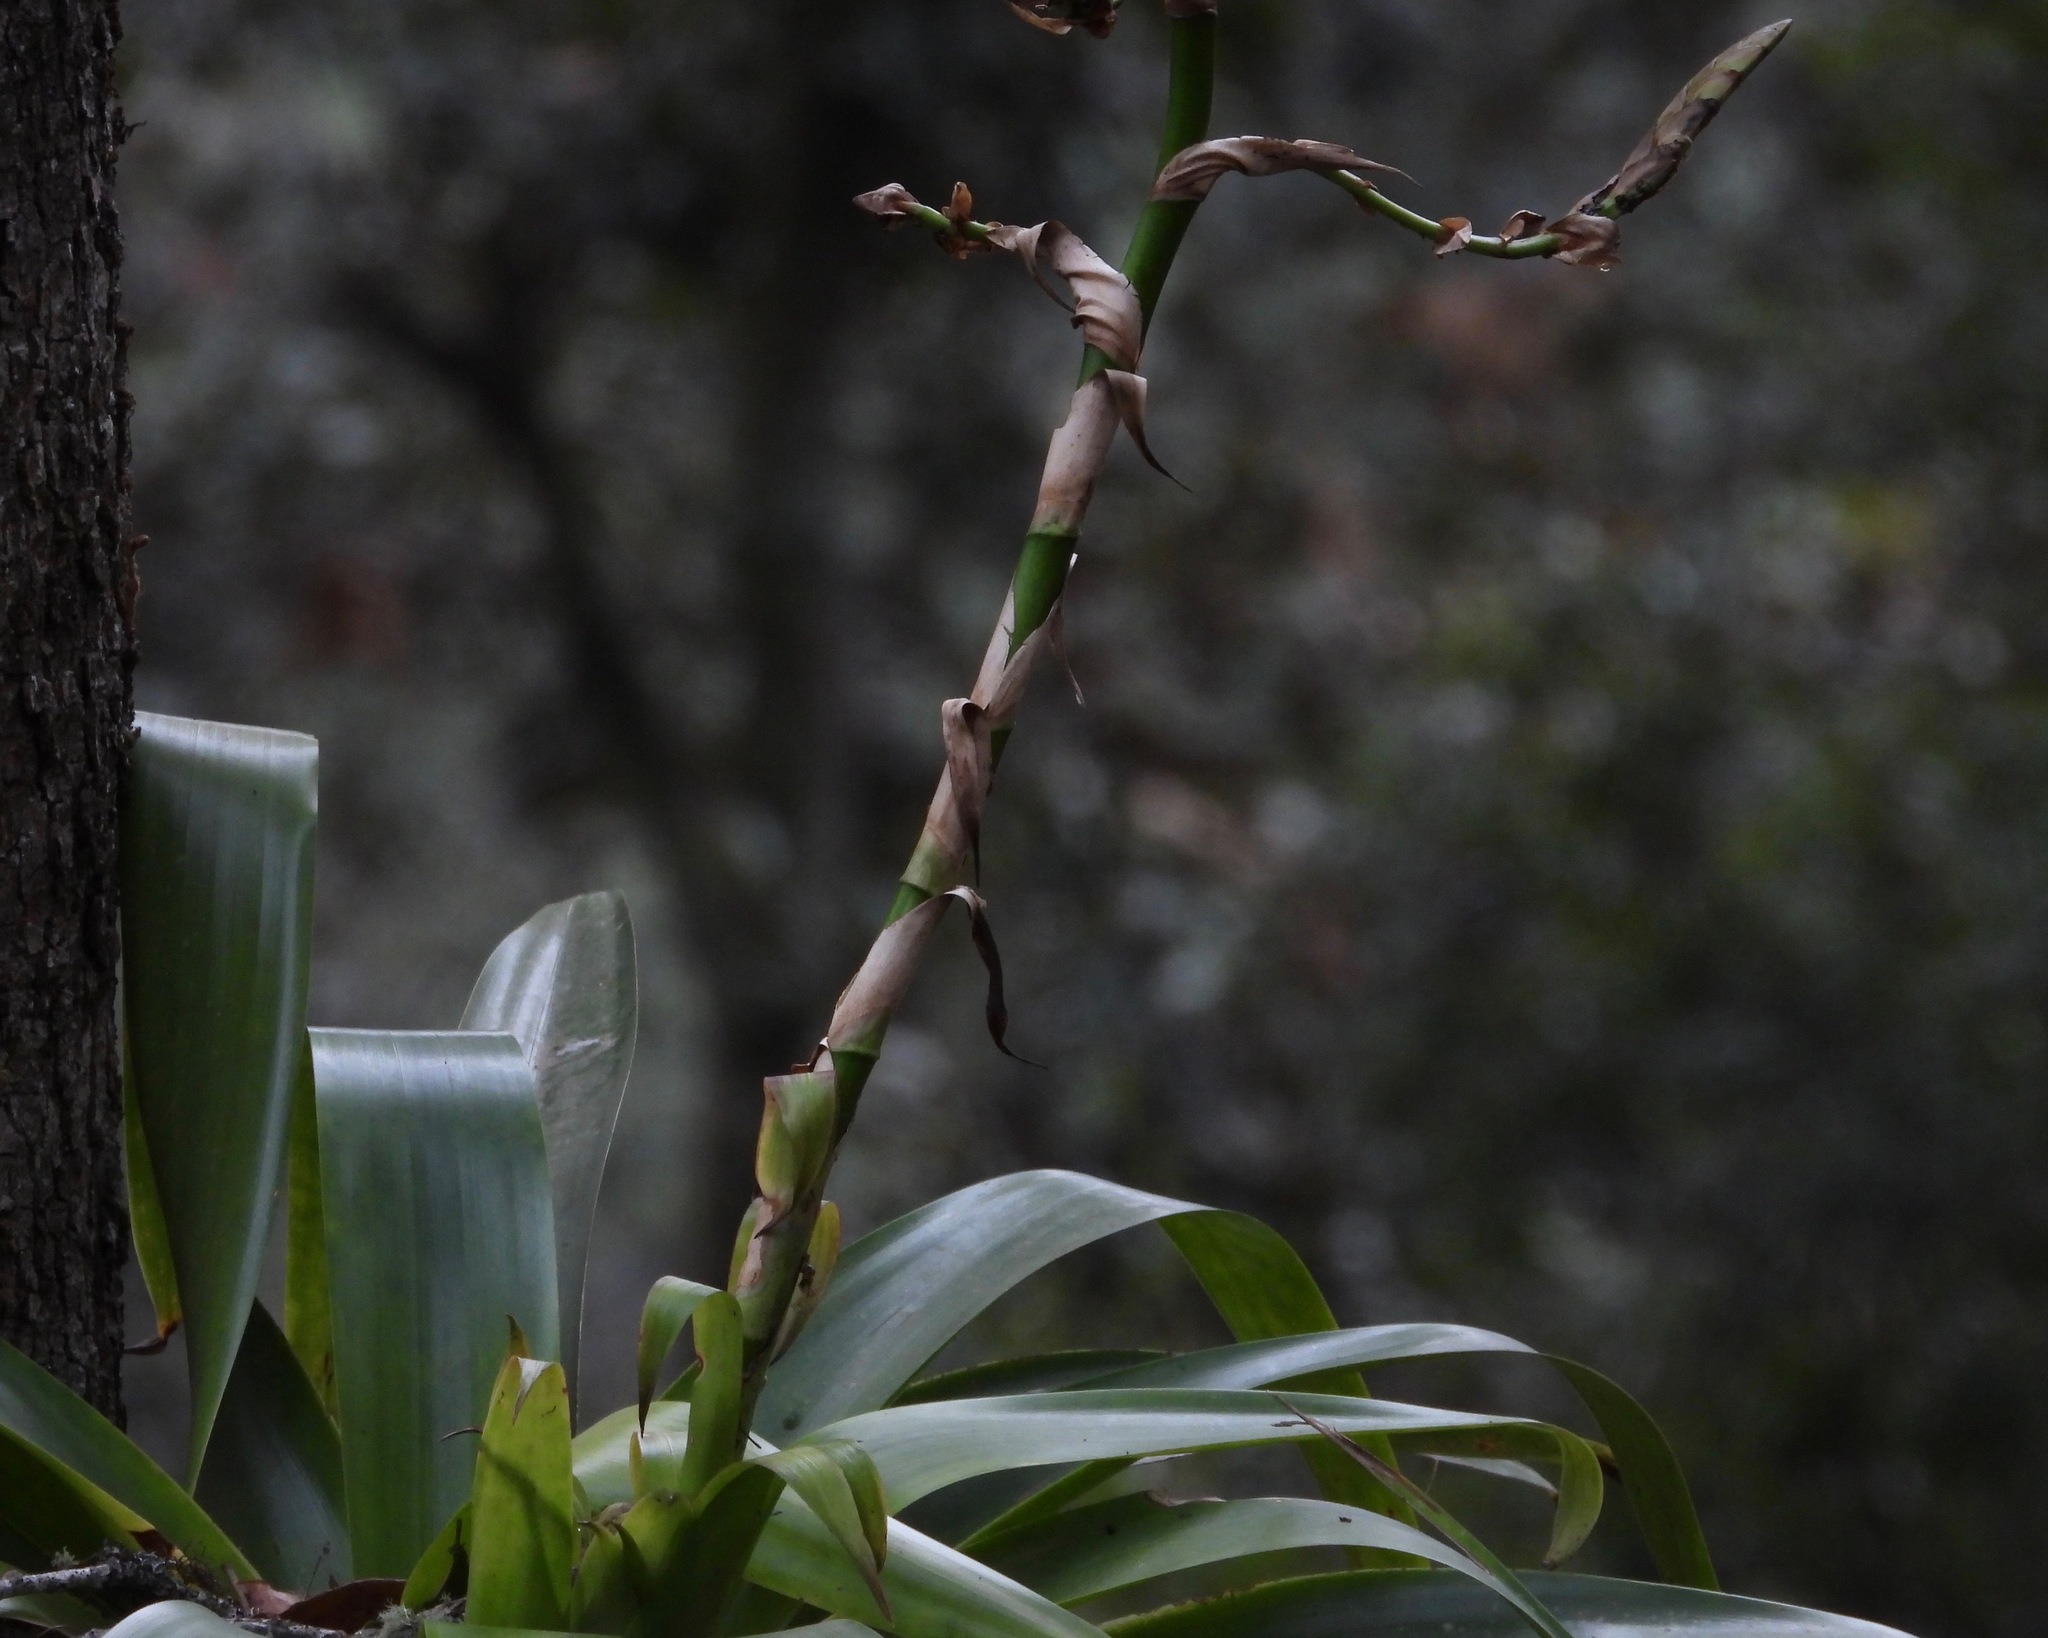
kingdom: Plantae
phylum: Tracheophyta
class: Liliopsida
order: Poales
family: Bromeliaceae
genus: Werauhia
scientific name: Werauhia werckleana
